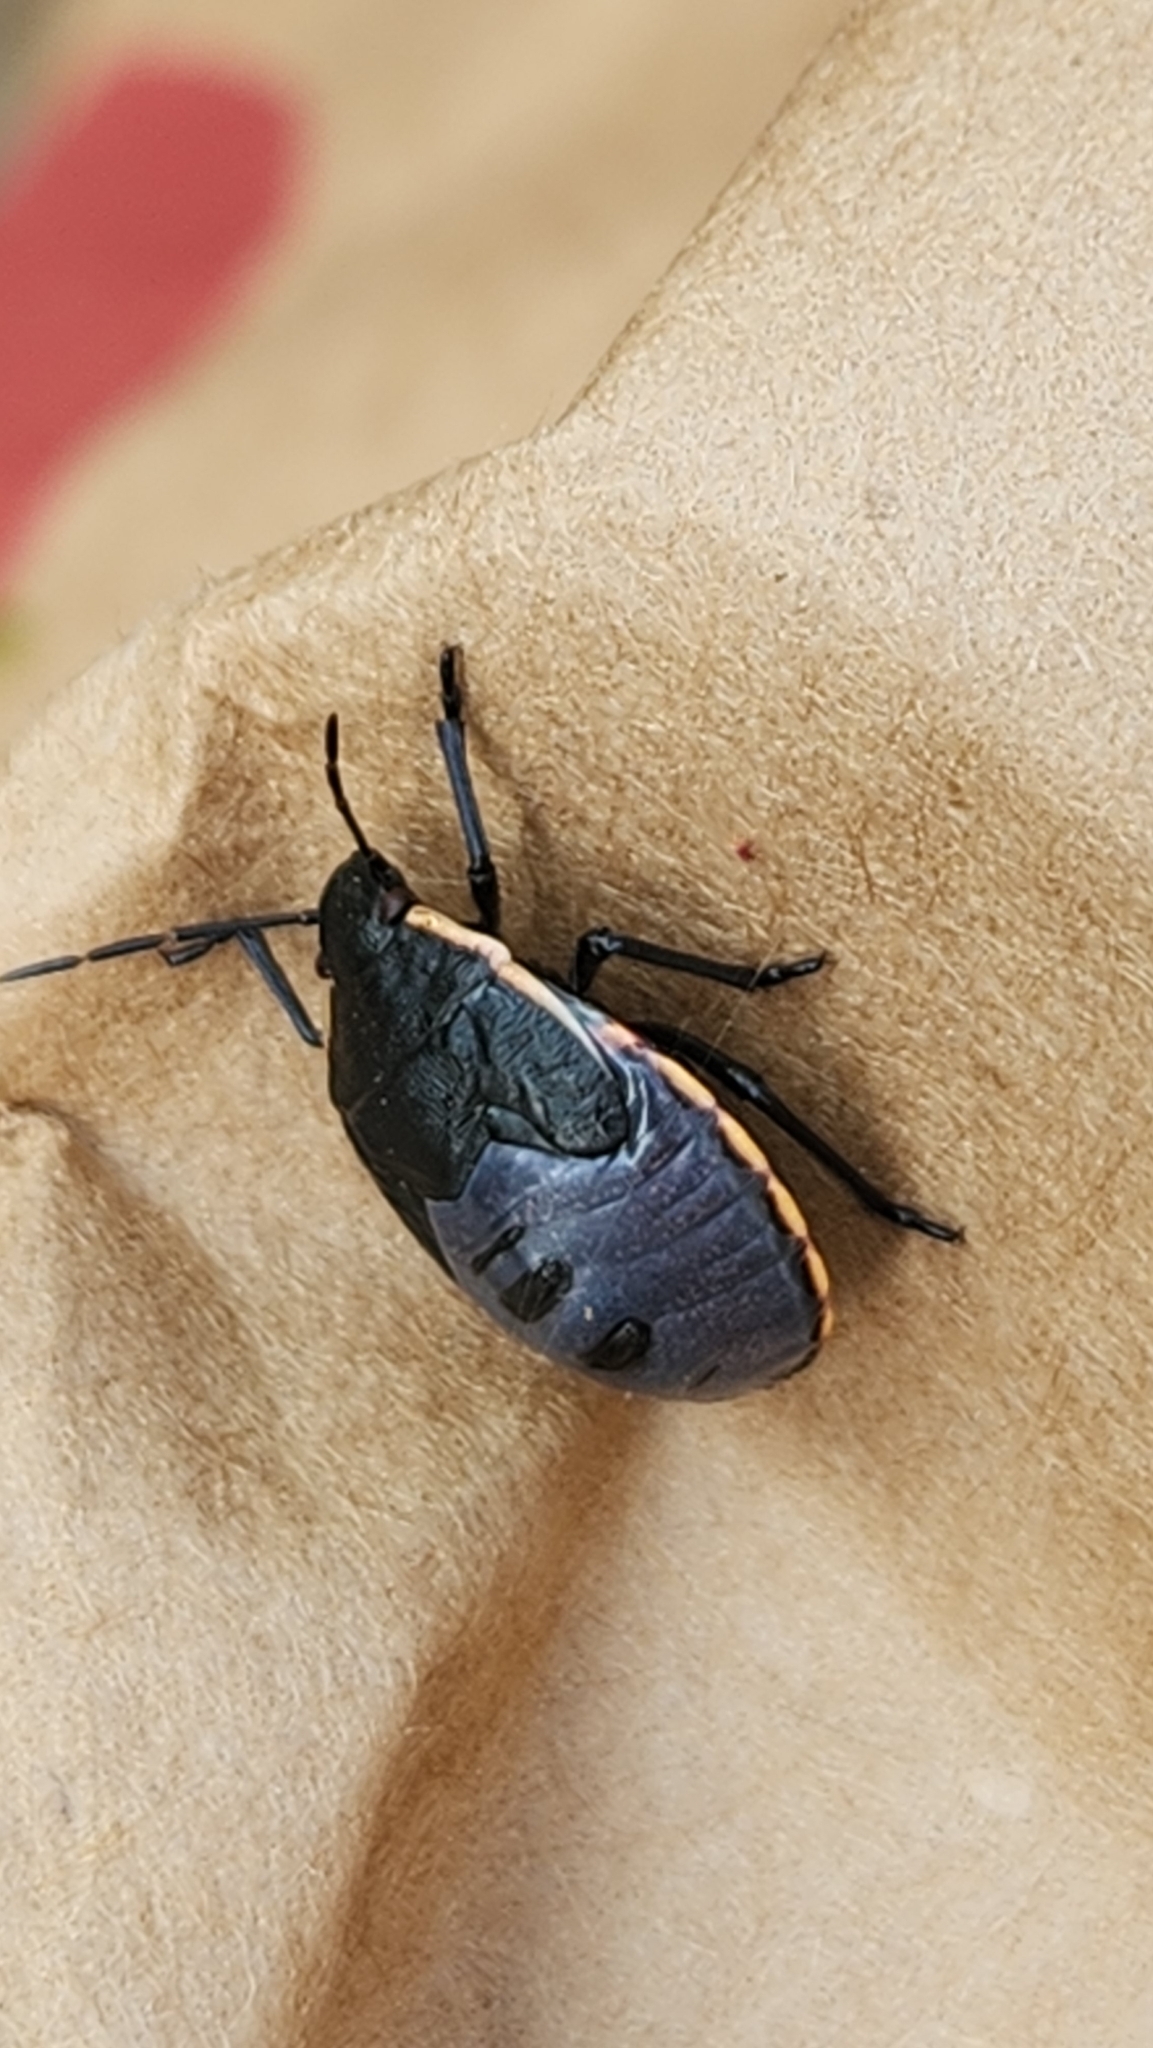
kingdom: Animalia
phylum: Arthropoda
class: Insecta
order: Hemiptera
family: Pentatomidae
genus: Chlorochroa
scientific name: Chlorochroa ligata
